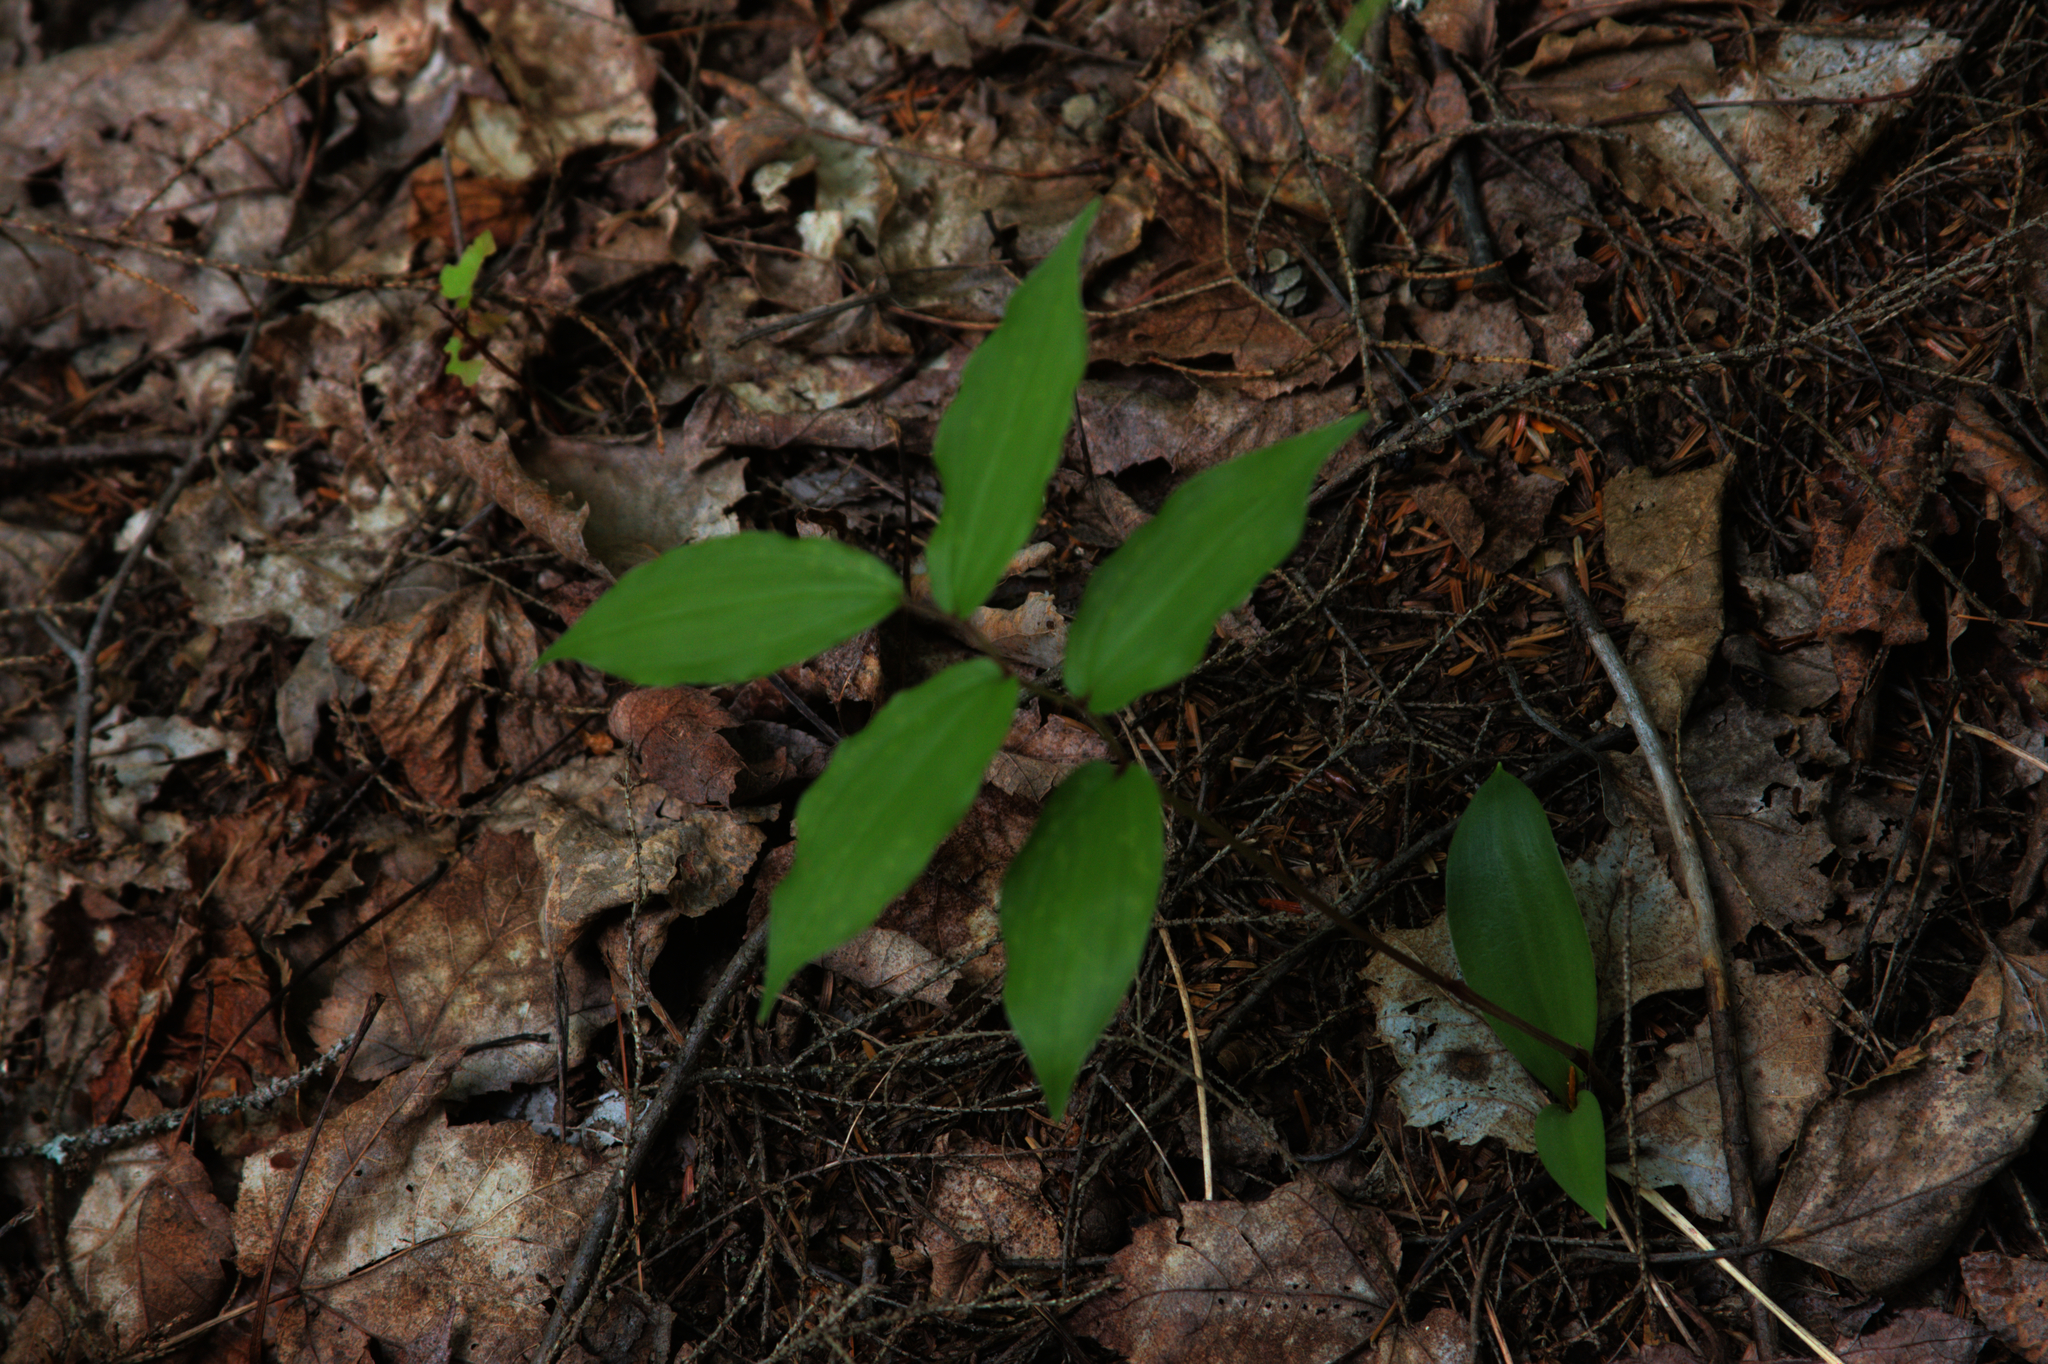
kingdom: Plantae
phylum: Tracheophyta
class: Liliopsida
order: Asparagales
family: Asparagaceae
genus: Maianthemum
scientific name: Maianthemum racemosum
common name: False spikenard
